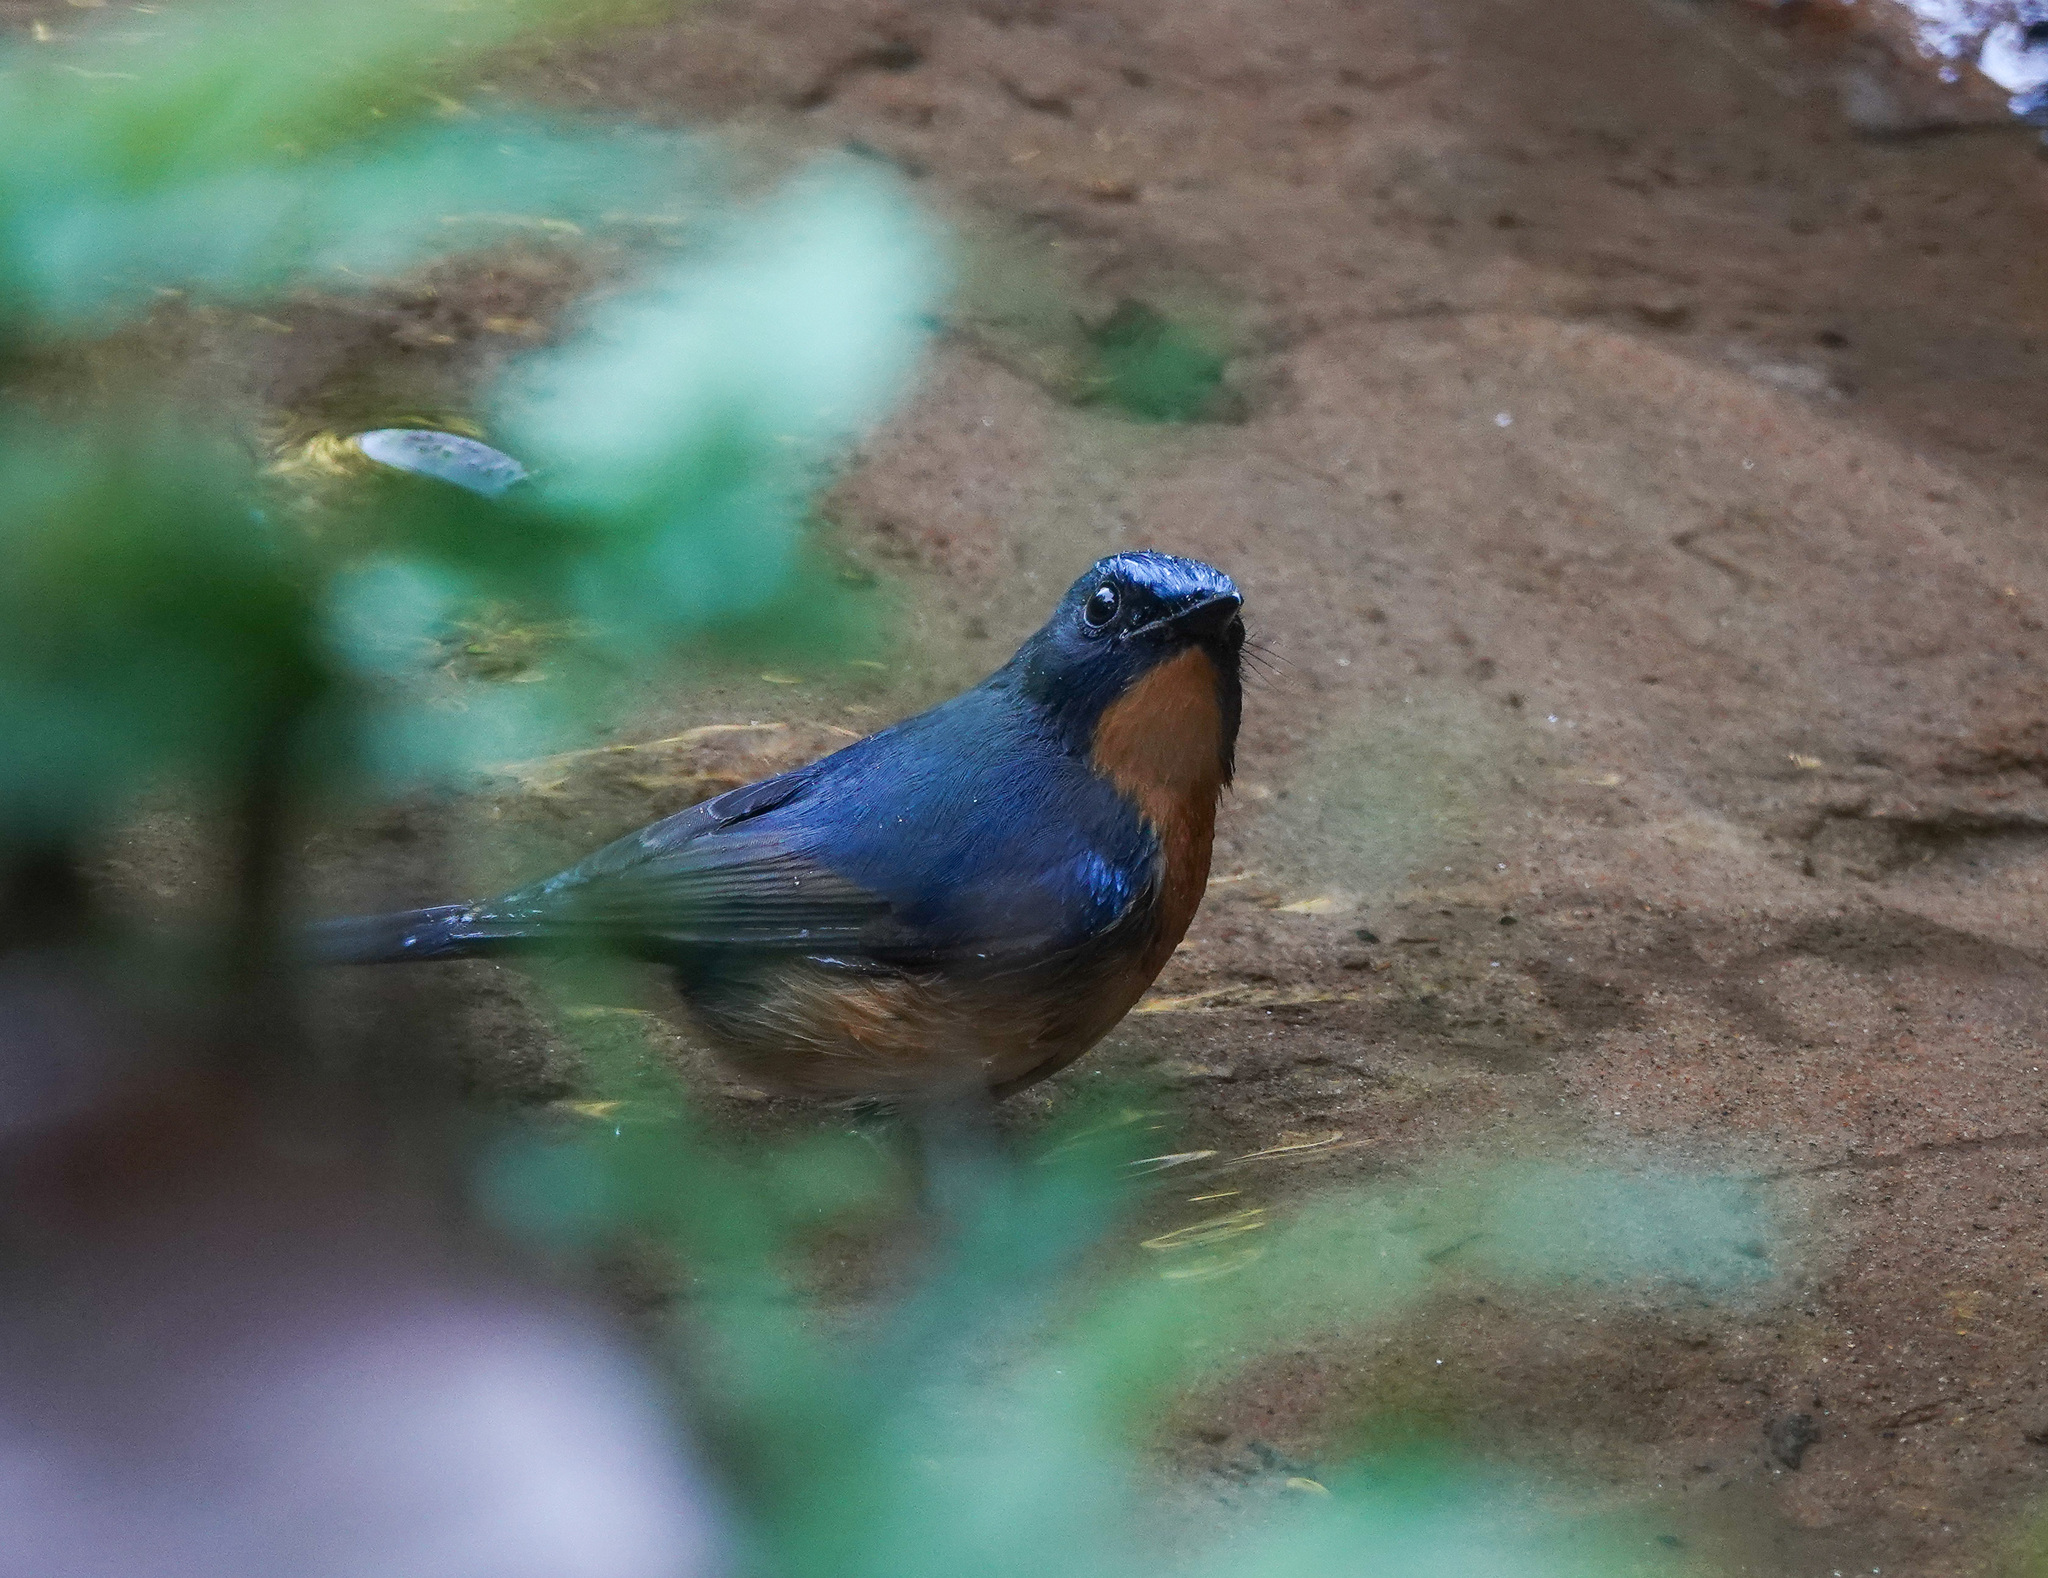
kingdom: Animalia
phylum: Chordata
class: Aves
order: Passeriformes
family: Muscicapidae
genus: Cyornis
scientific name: Cyornis whitei
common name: Hill blue flycatcher
